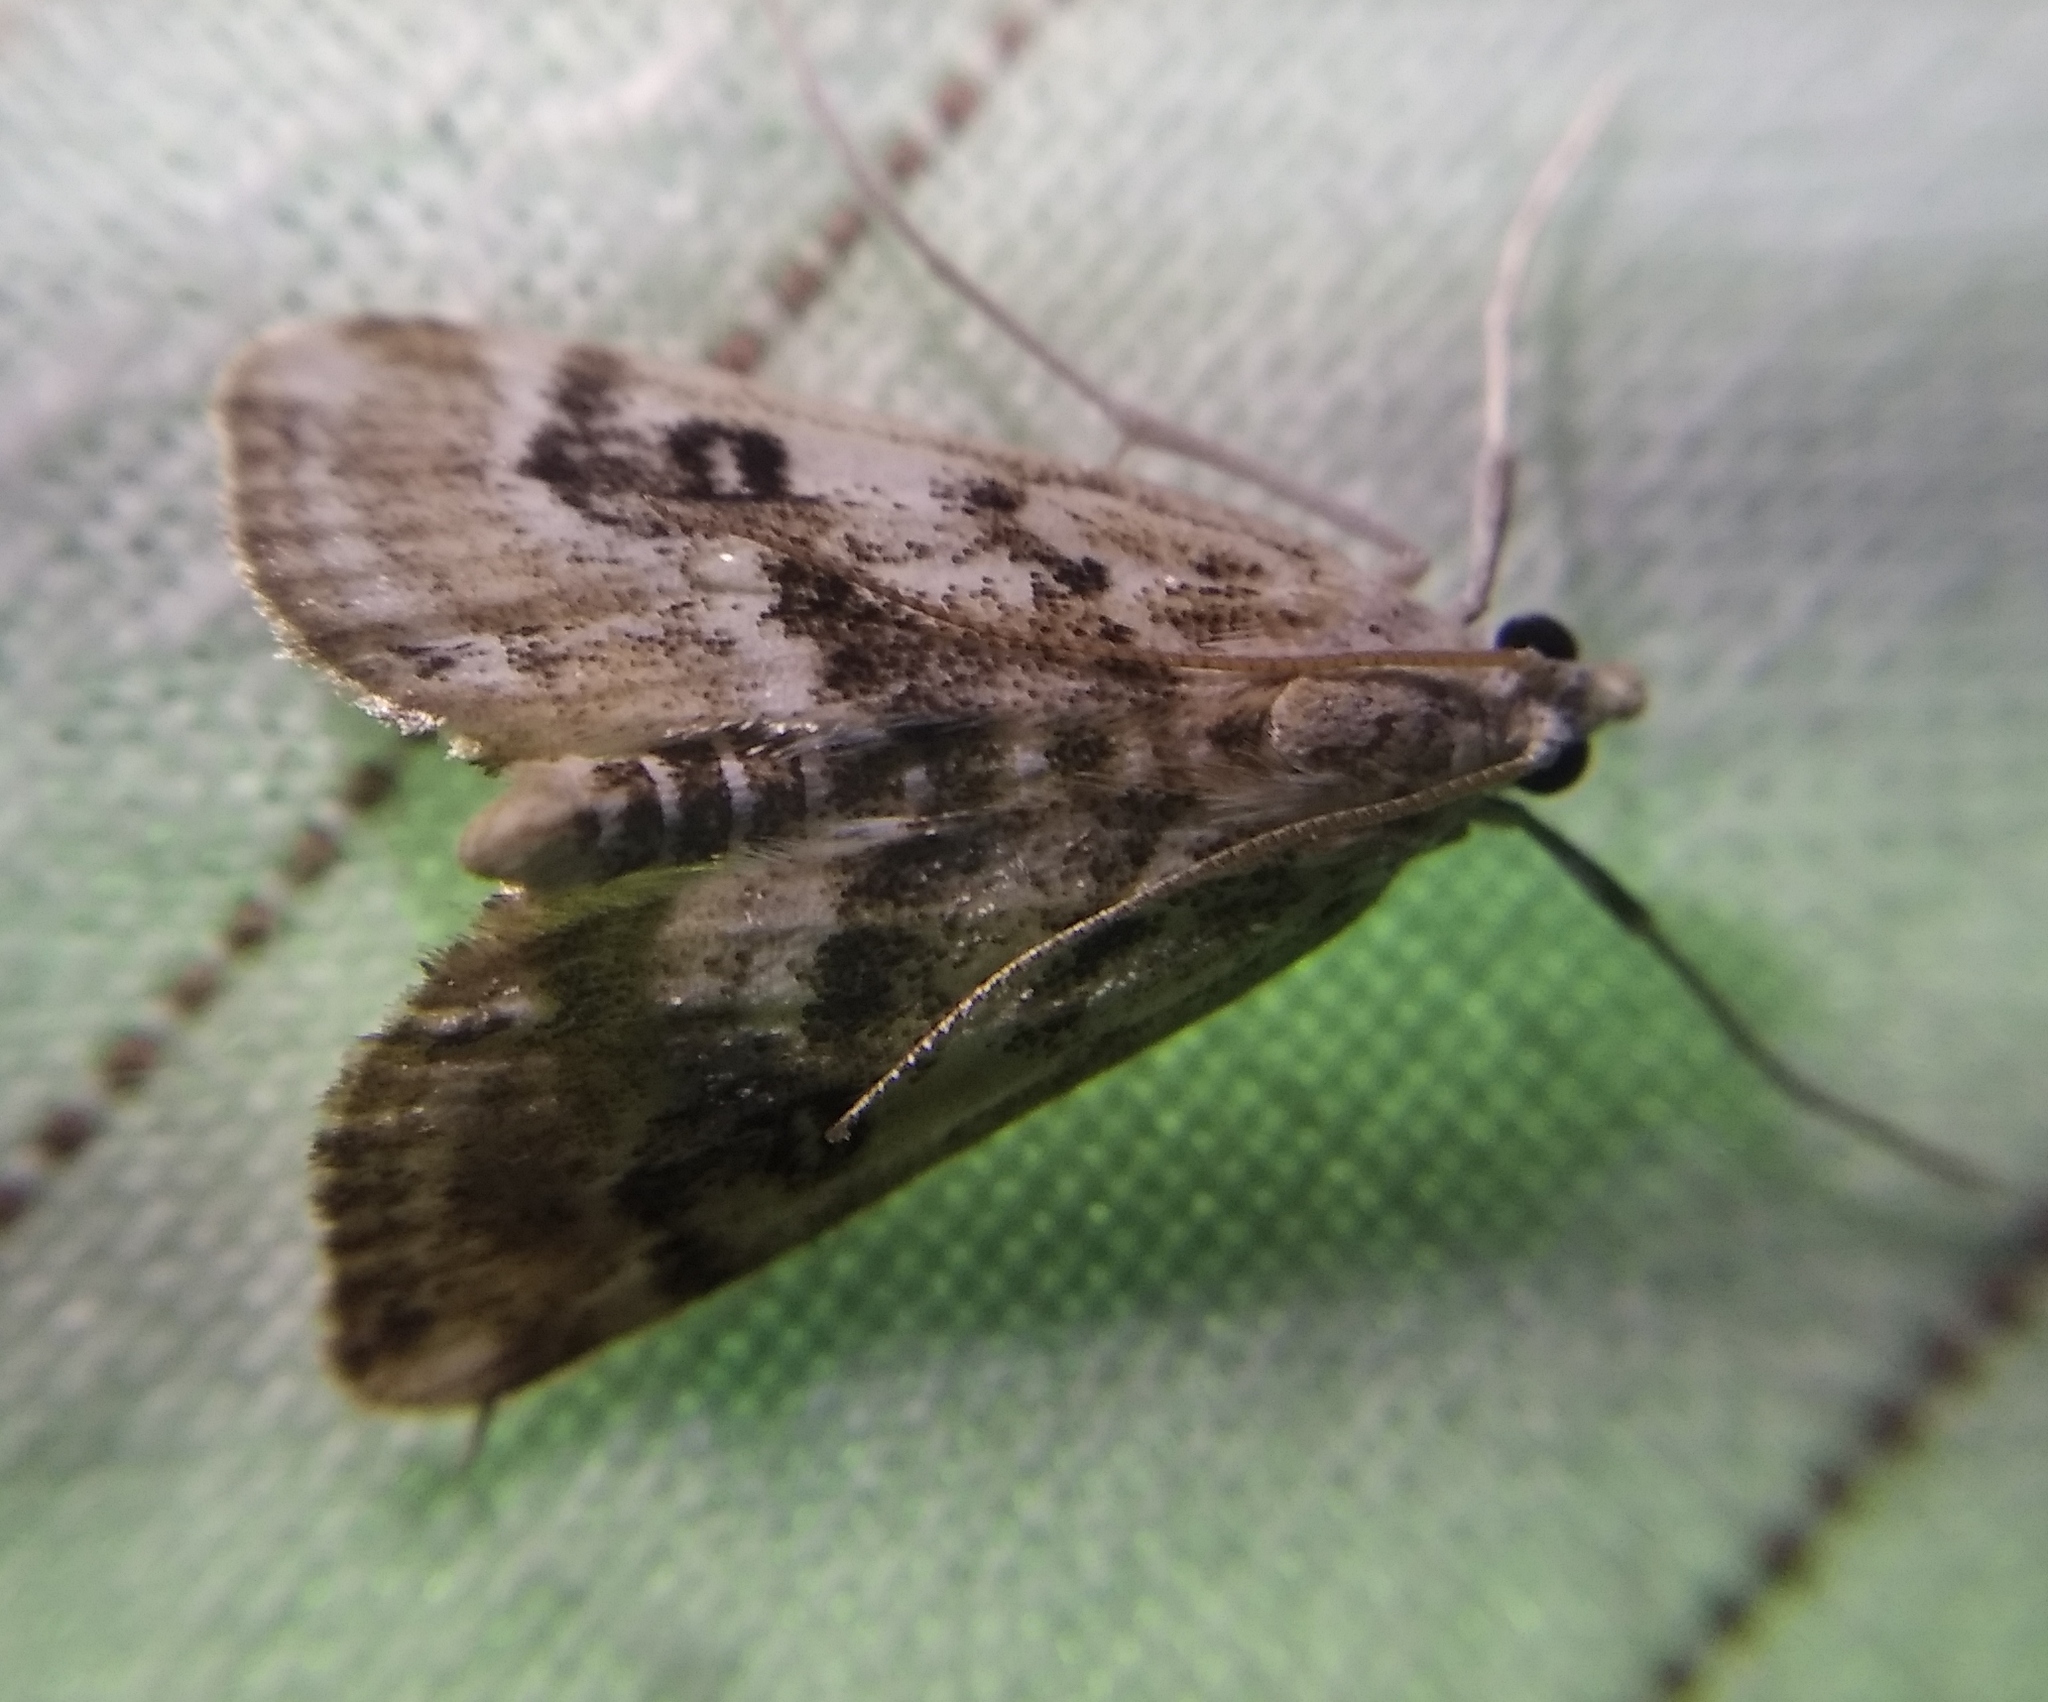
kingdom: Animalia
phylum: Arthropoda
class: Insecta
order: Lepidoptera
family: Crambidae
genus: Parapoynx
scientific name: Parapoynx stratiotata
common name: Ringed china-mark
